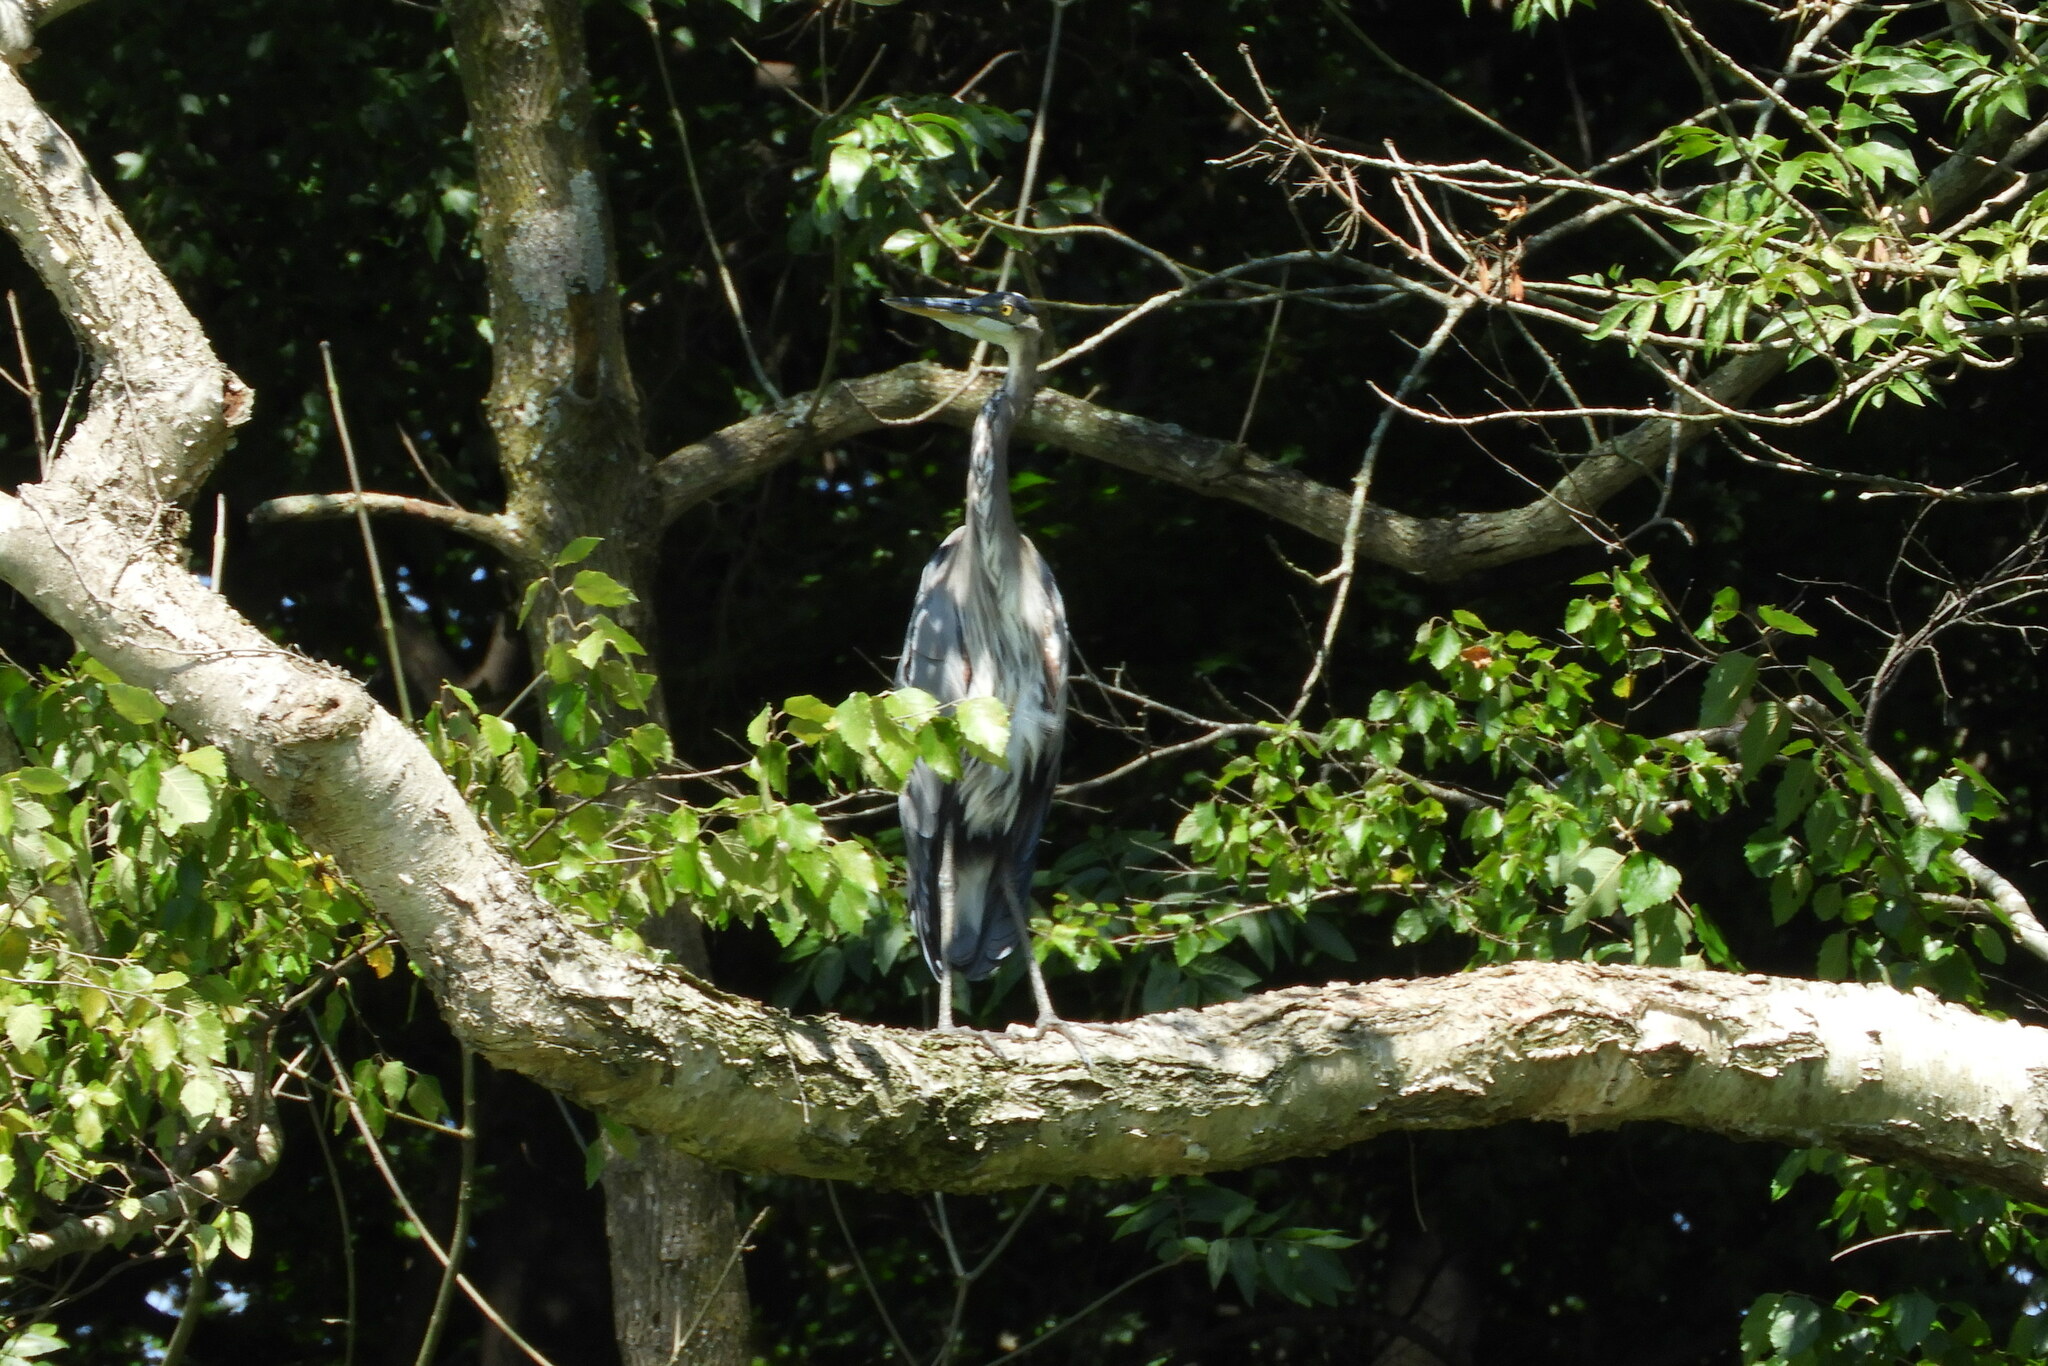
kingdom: Animalia
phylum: Chordata
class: Aves
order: Pelecaniformes
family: Ardeidae
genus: Ardea
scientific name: Ardea herodias
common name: Great blue heron
